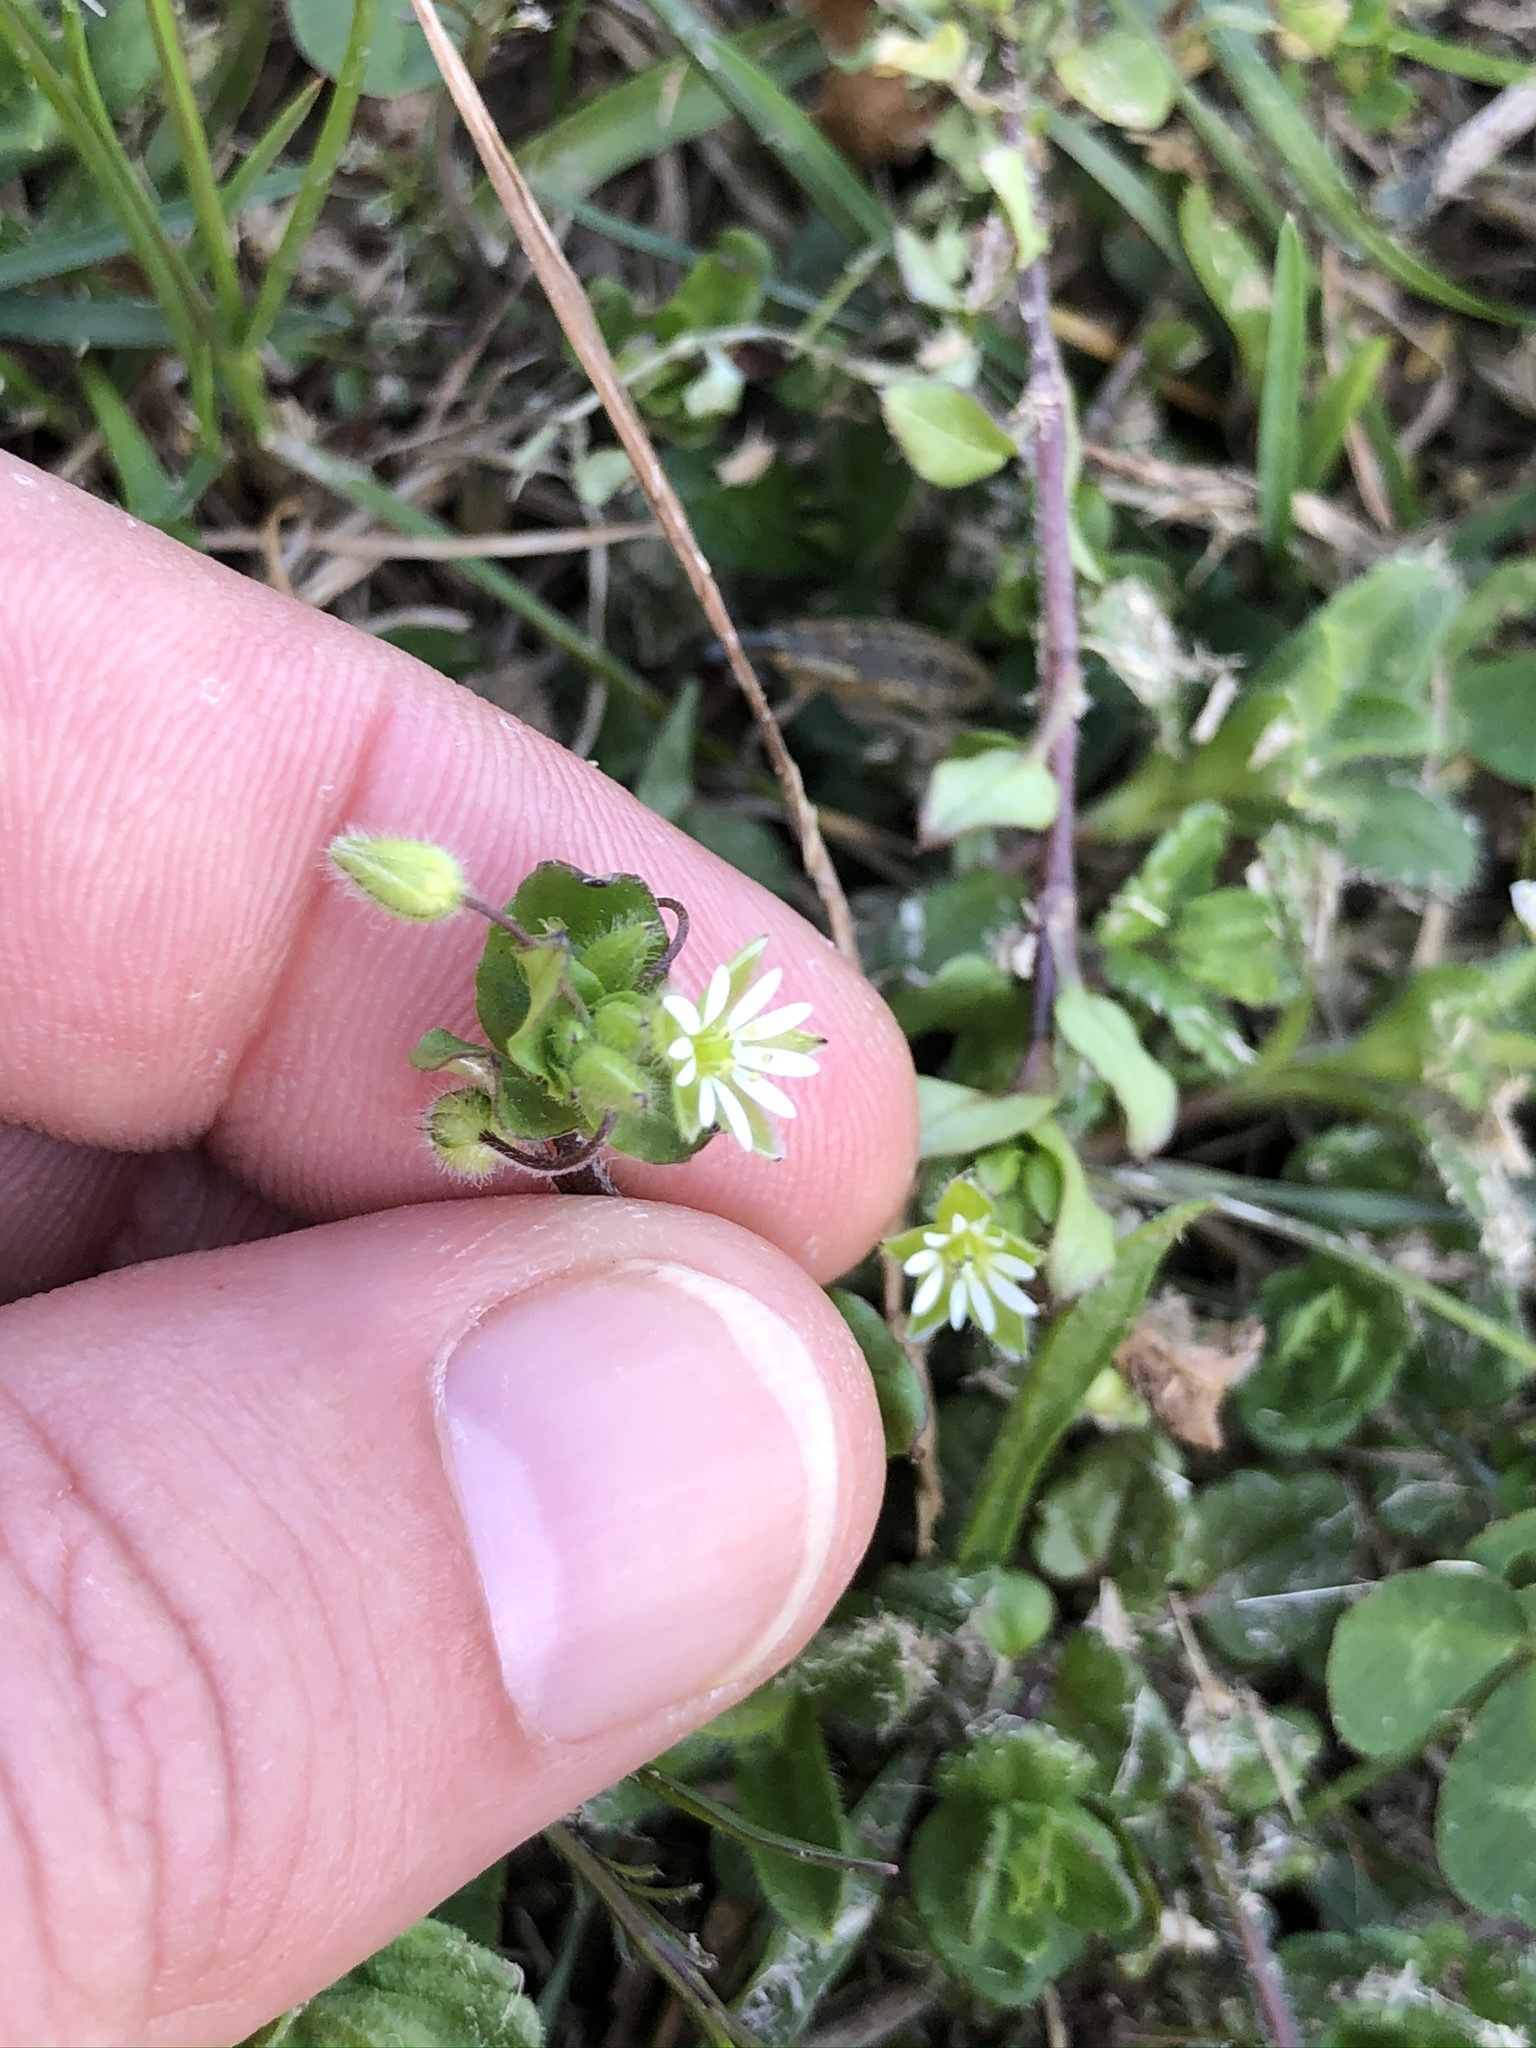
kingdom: Plantae
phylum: Tracheophyta
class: Magnoliopsida
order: Caryophyllales
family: Caryophyllaceae
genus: Stellaria
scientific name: Stellaria media
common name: Common chickweed
